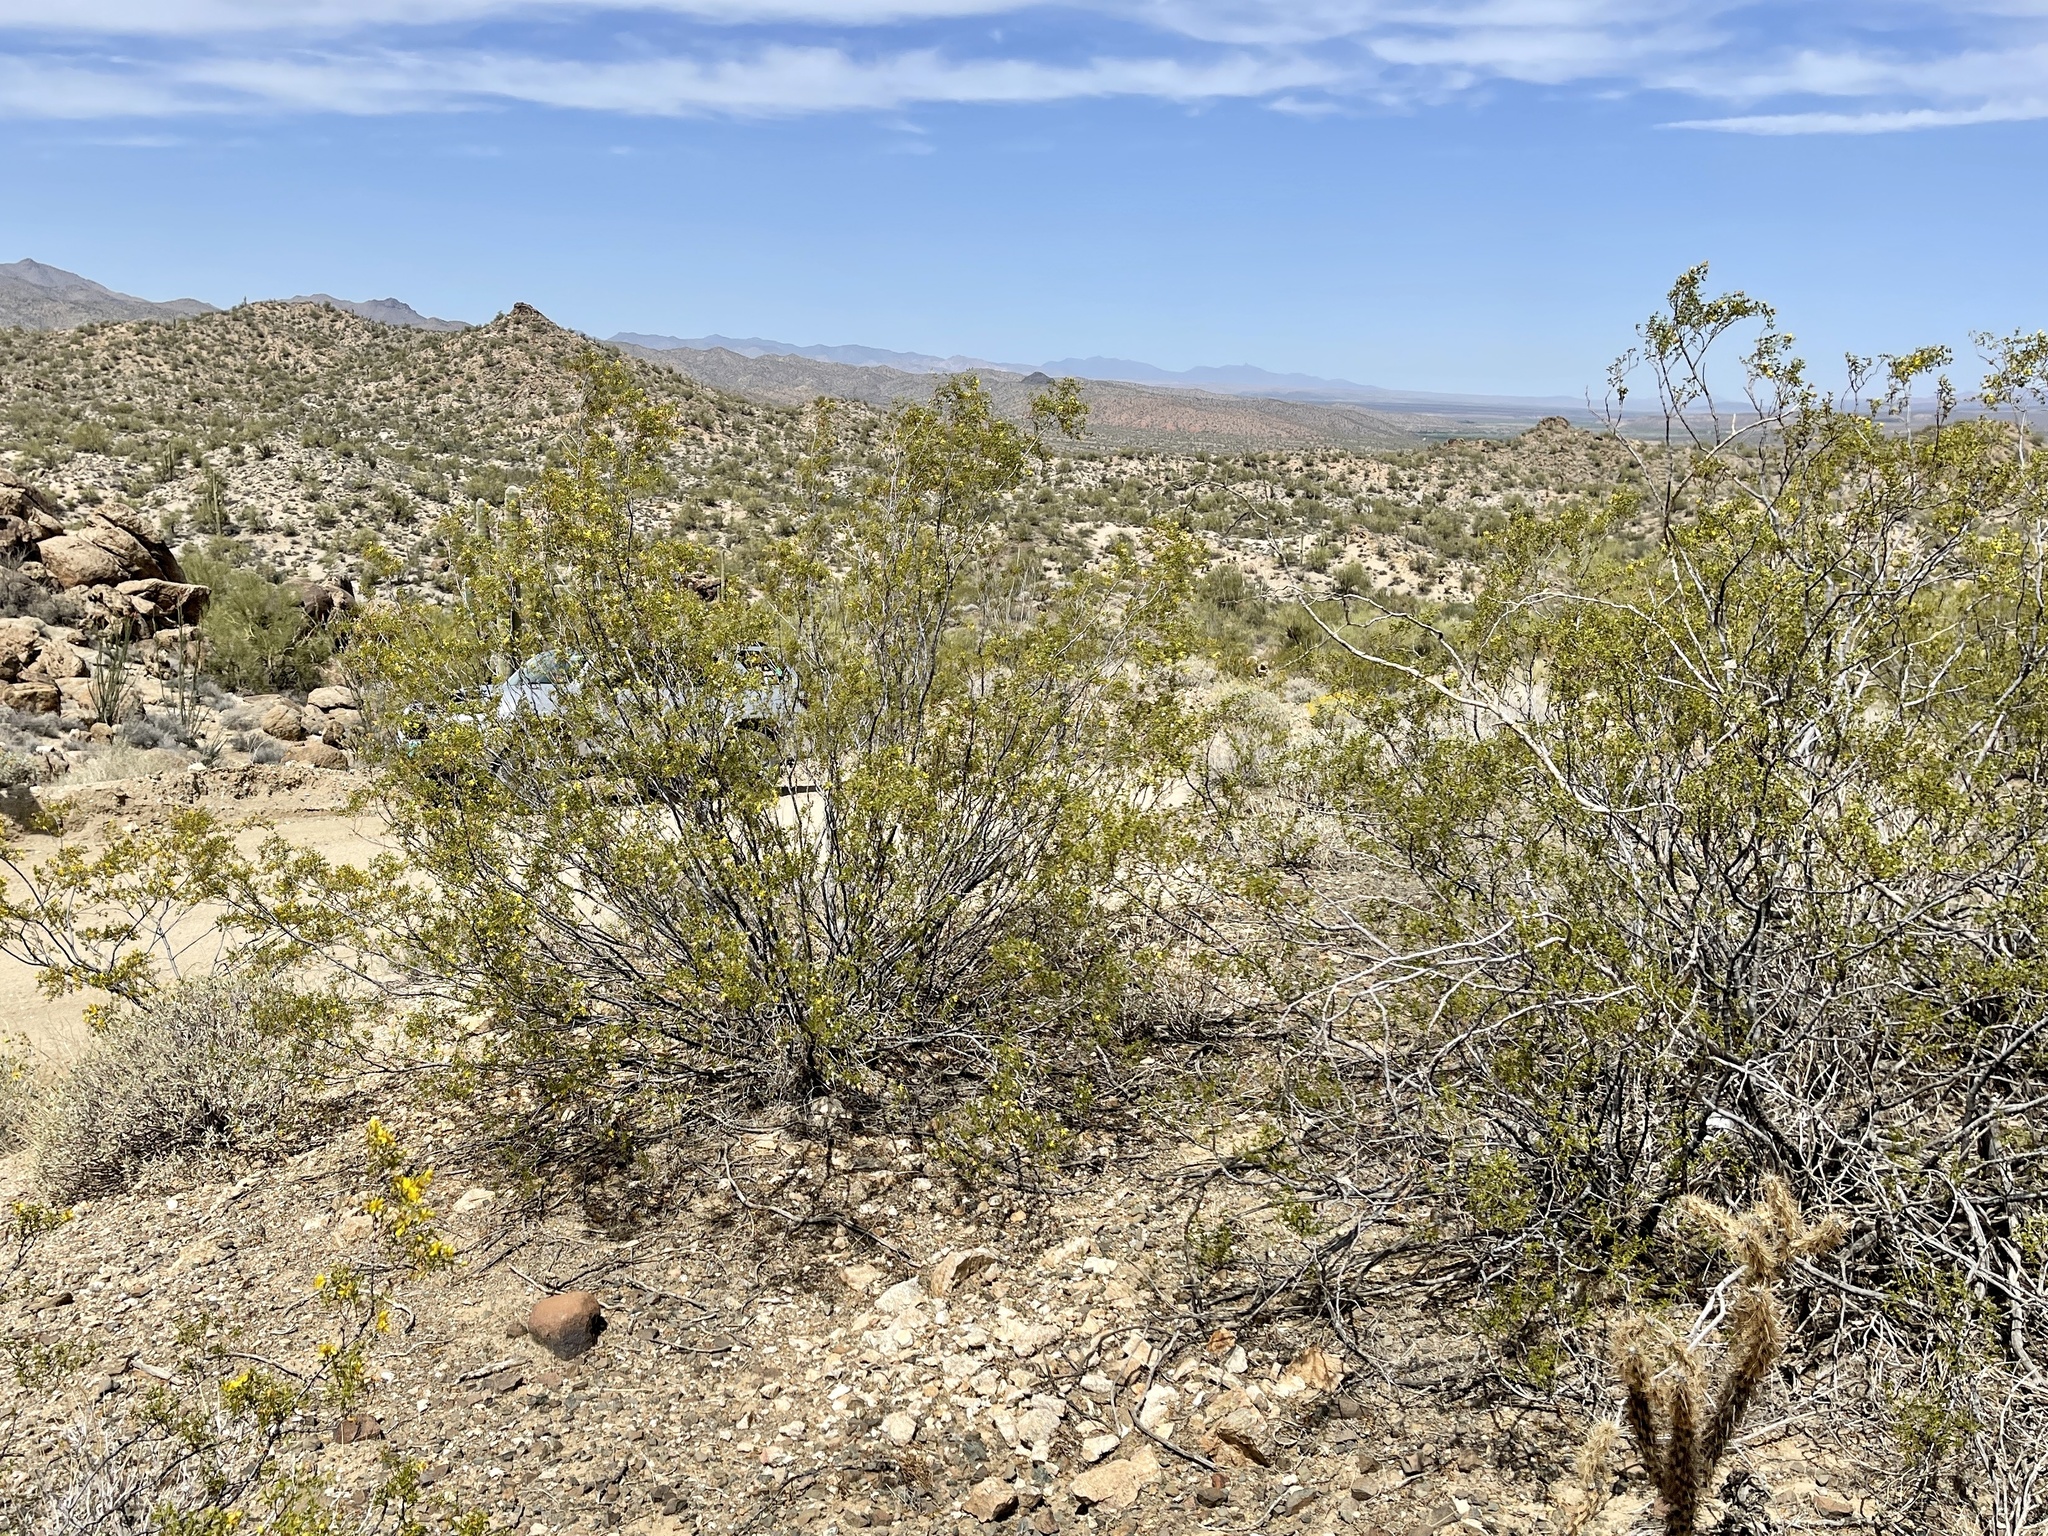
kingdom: Plantae
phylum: Tracheophyta
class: Magnoliopsida
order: Zygophyllales
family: Zygophyllaceae
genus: Larrea
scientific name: Larrea tridentata
